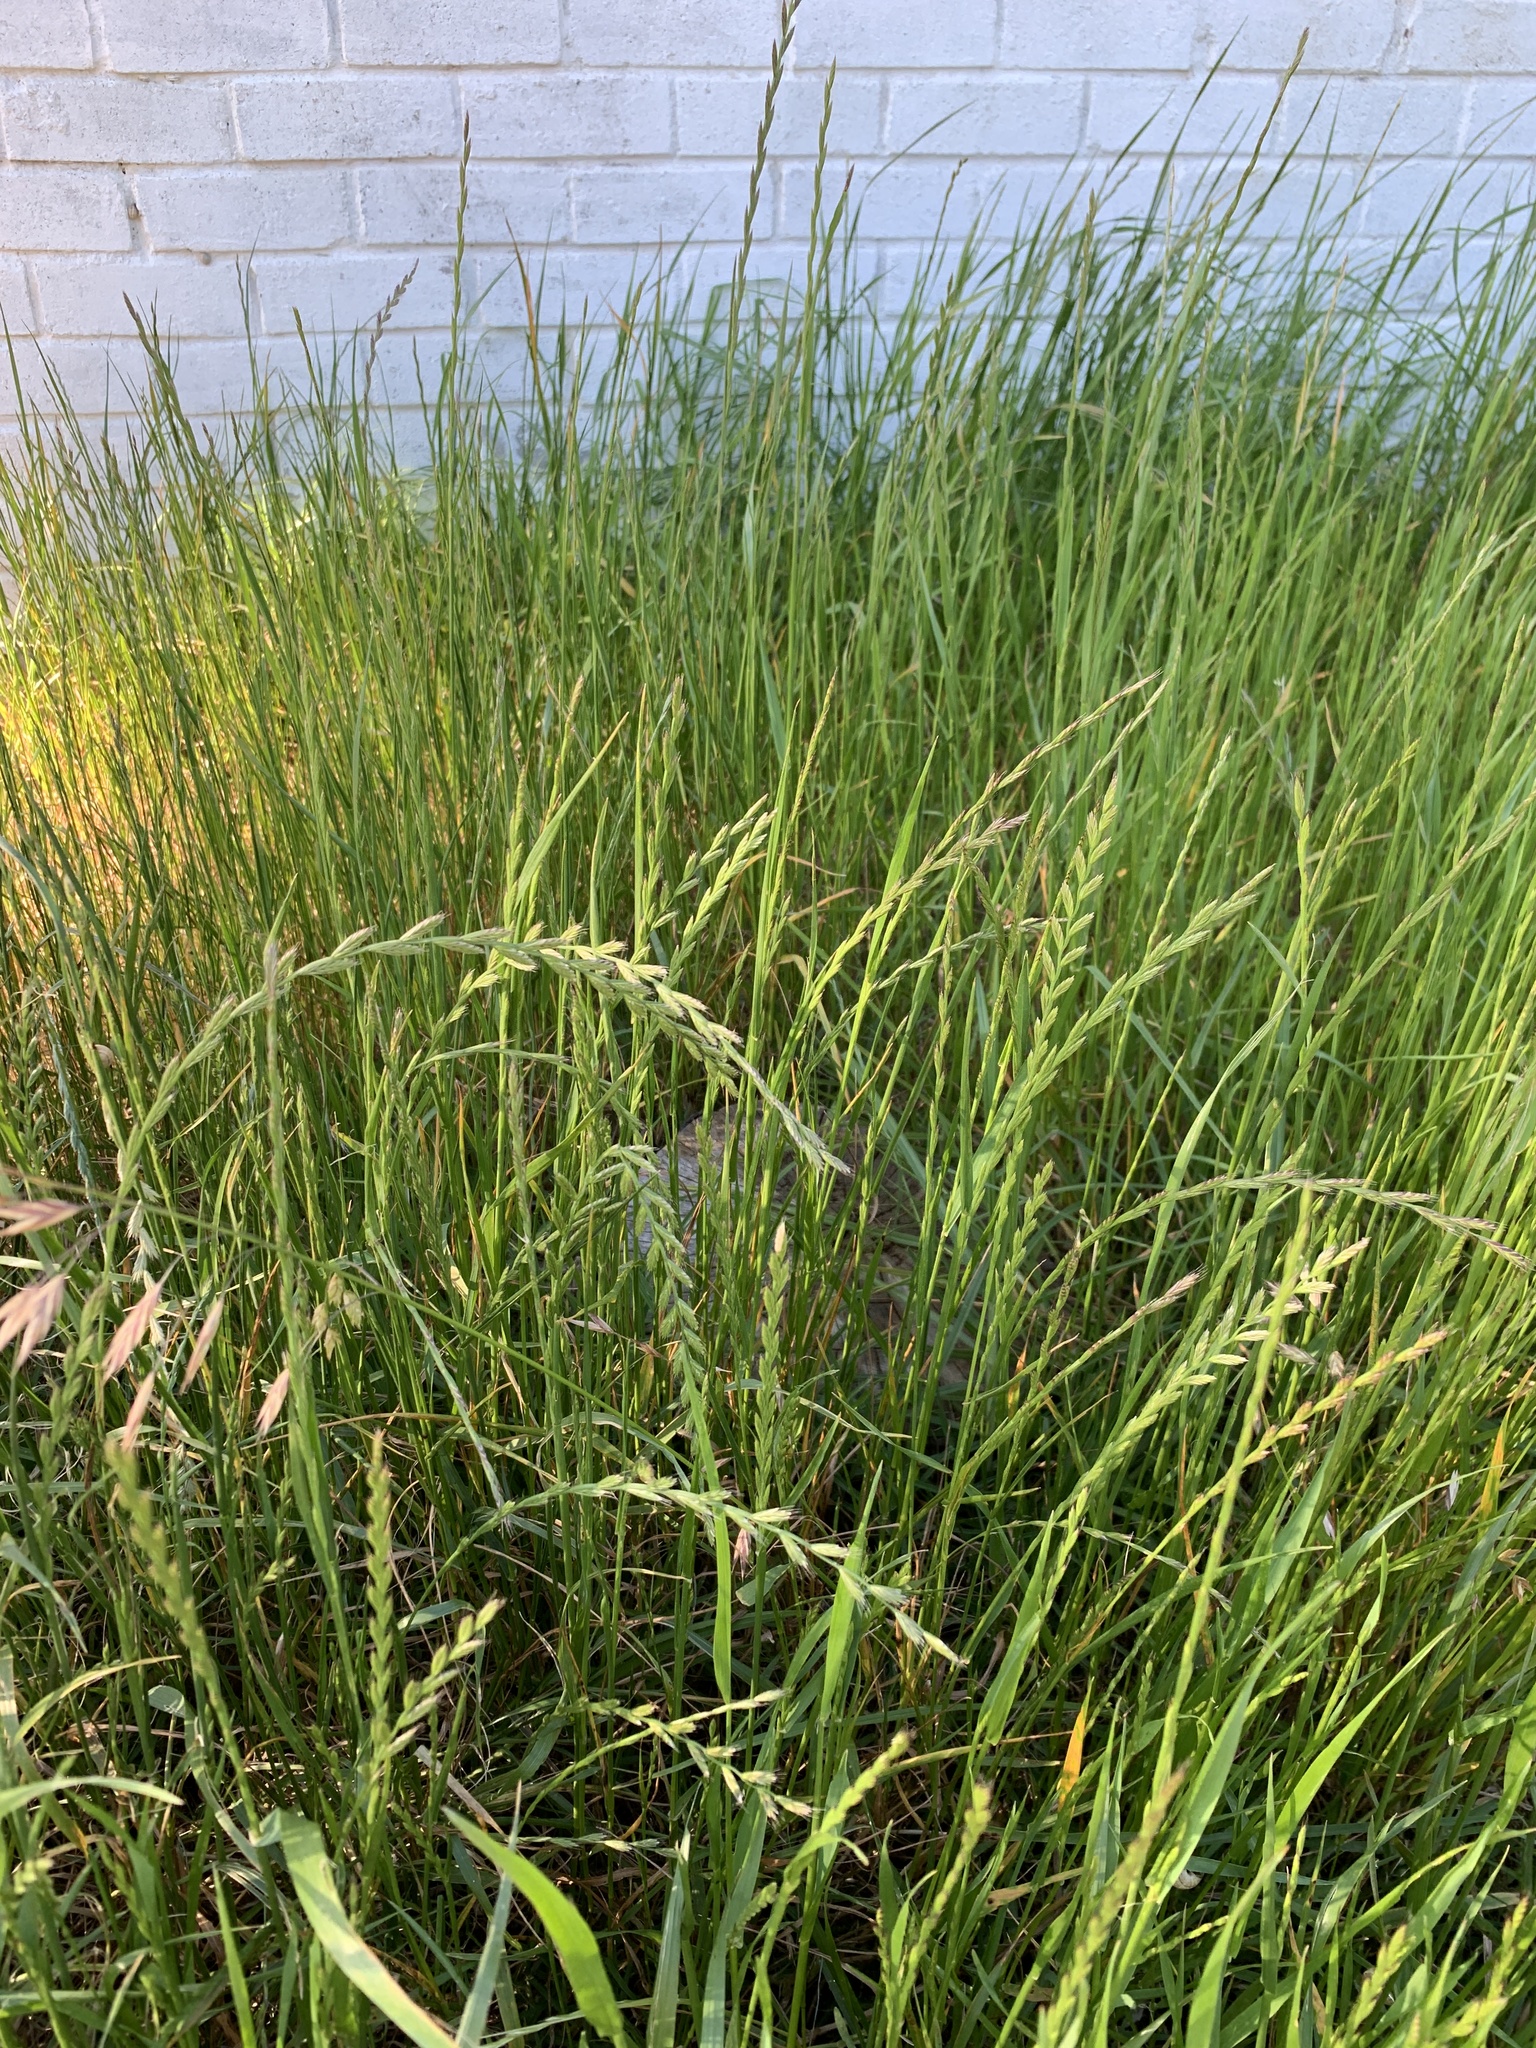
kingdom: Plantae
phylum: Tracheophyta
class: Liliopsida
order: Poales
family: Poaceae
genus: Lolium
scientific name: Lolium
